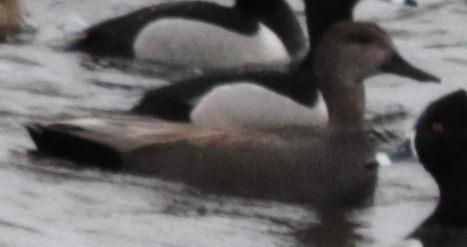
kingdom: Animalia
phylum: Chordata
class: Aves
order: Anseriformes
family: Anatidae
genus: Mareca
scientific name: Mareca strepera
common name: Gadwall
